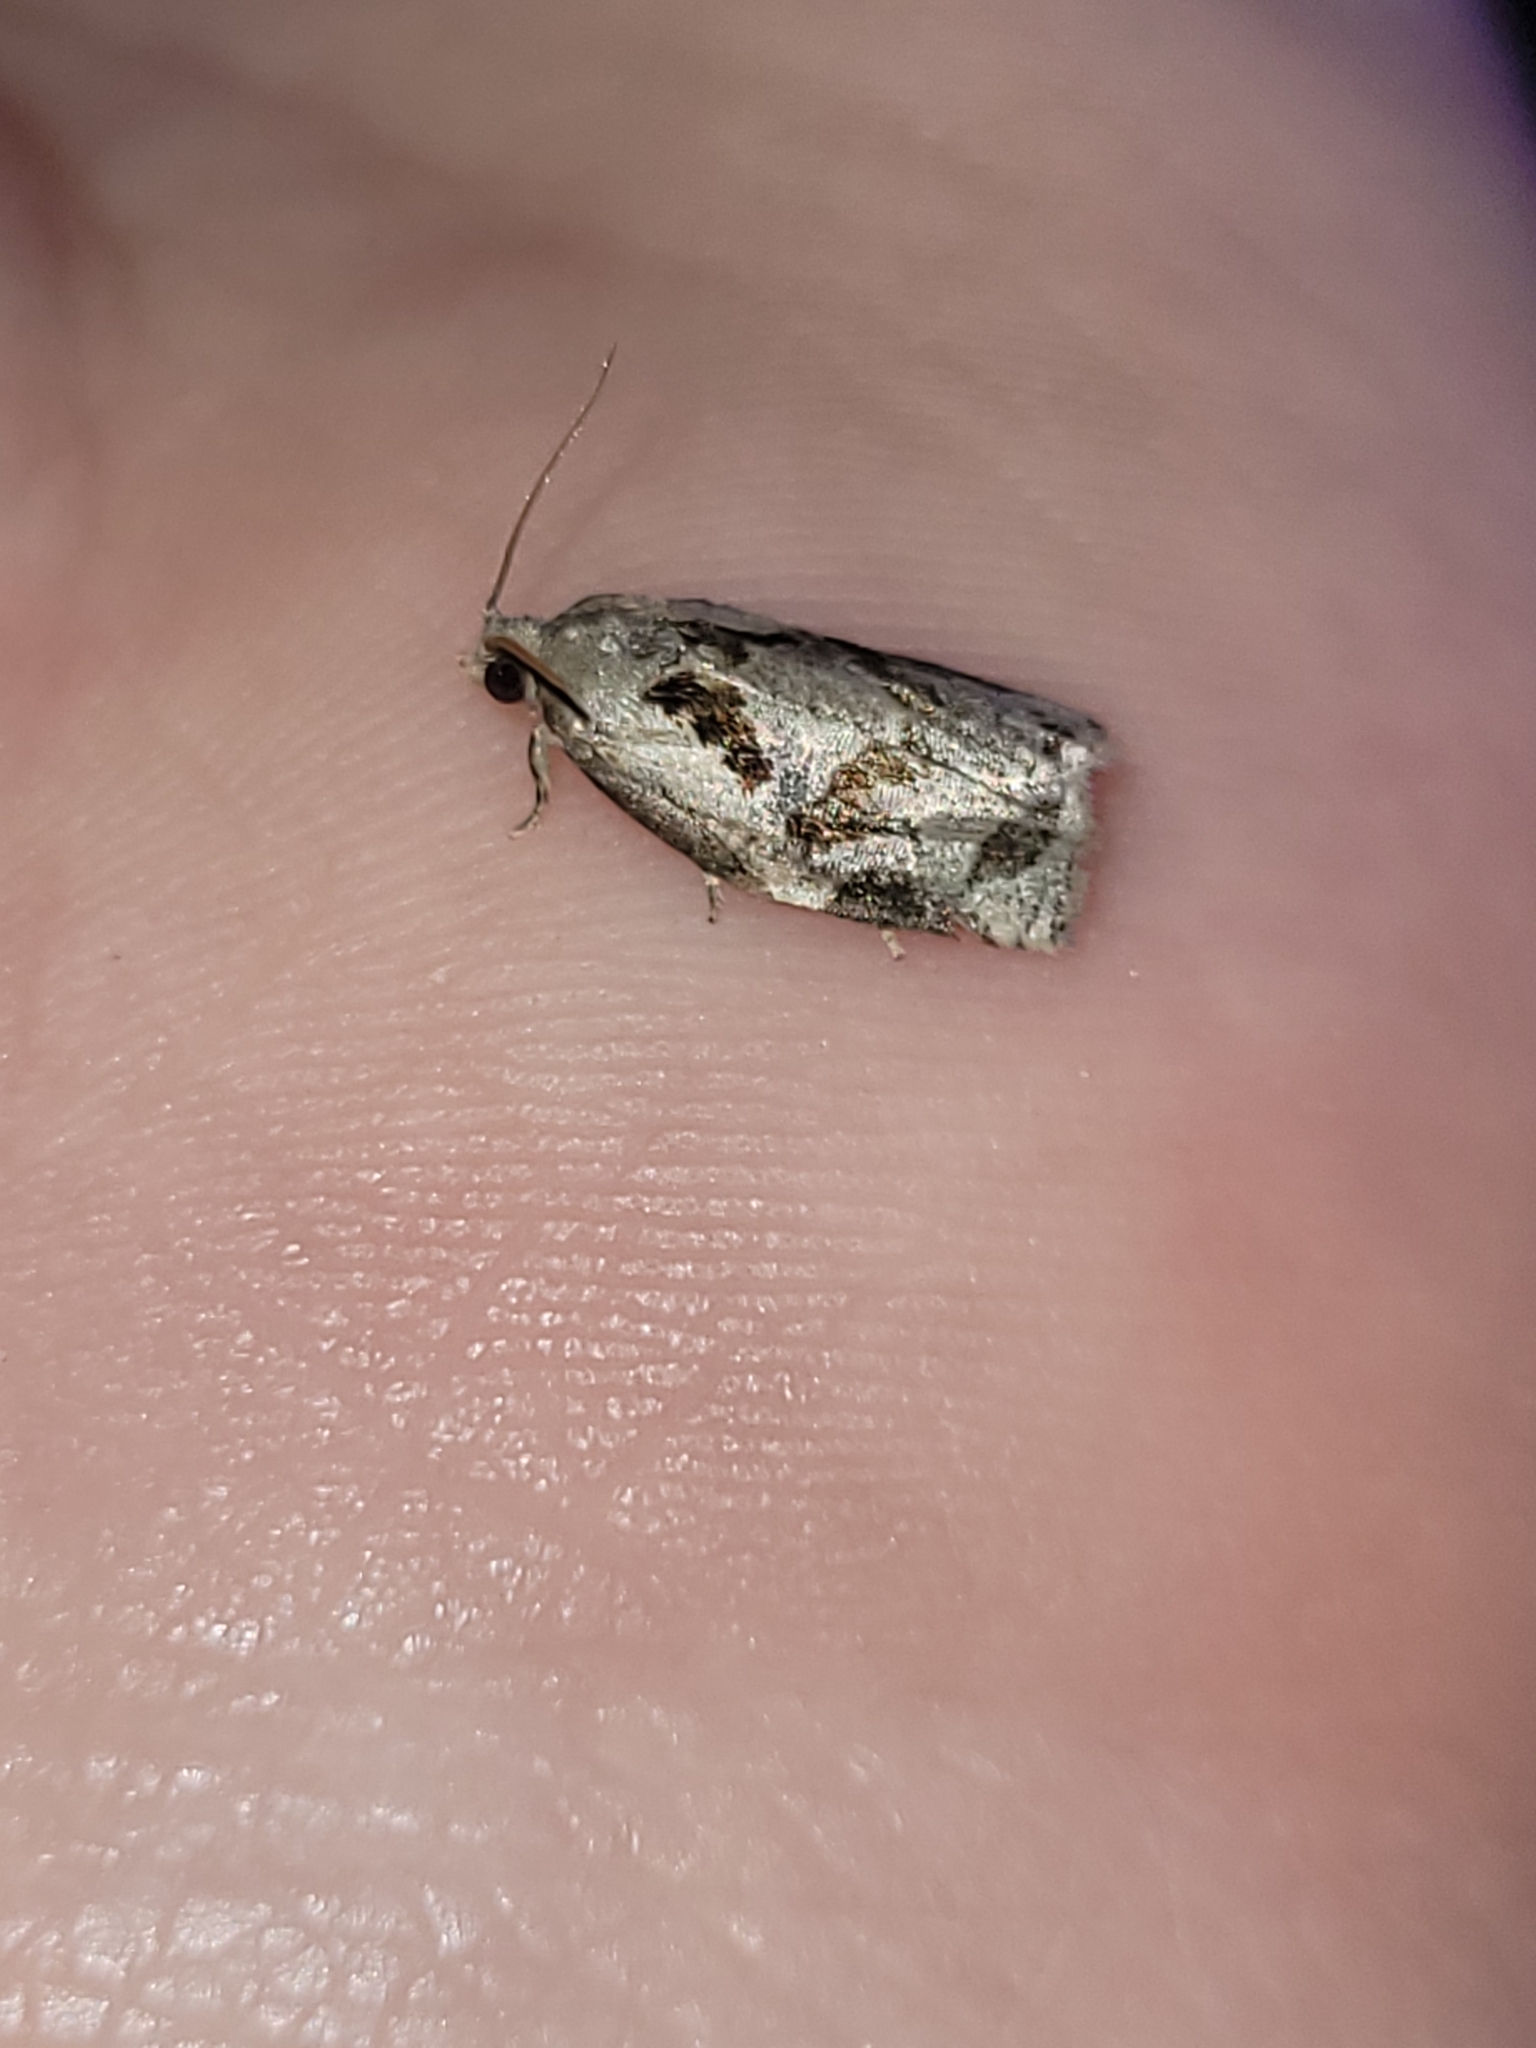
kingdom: Animalia
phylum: Arthropoda
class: Insecta
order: Lepidoptera
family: Tortricidae
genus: Archips
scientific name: Archips grisea
